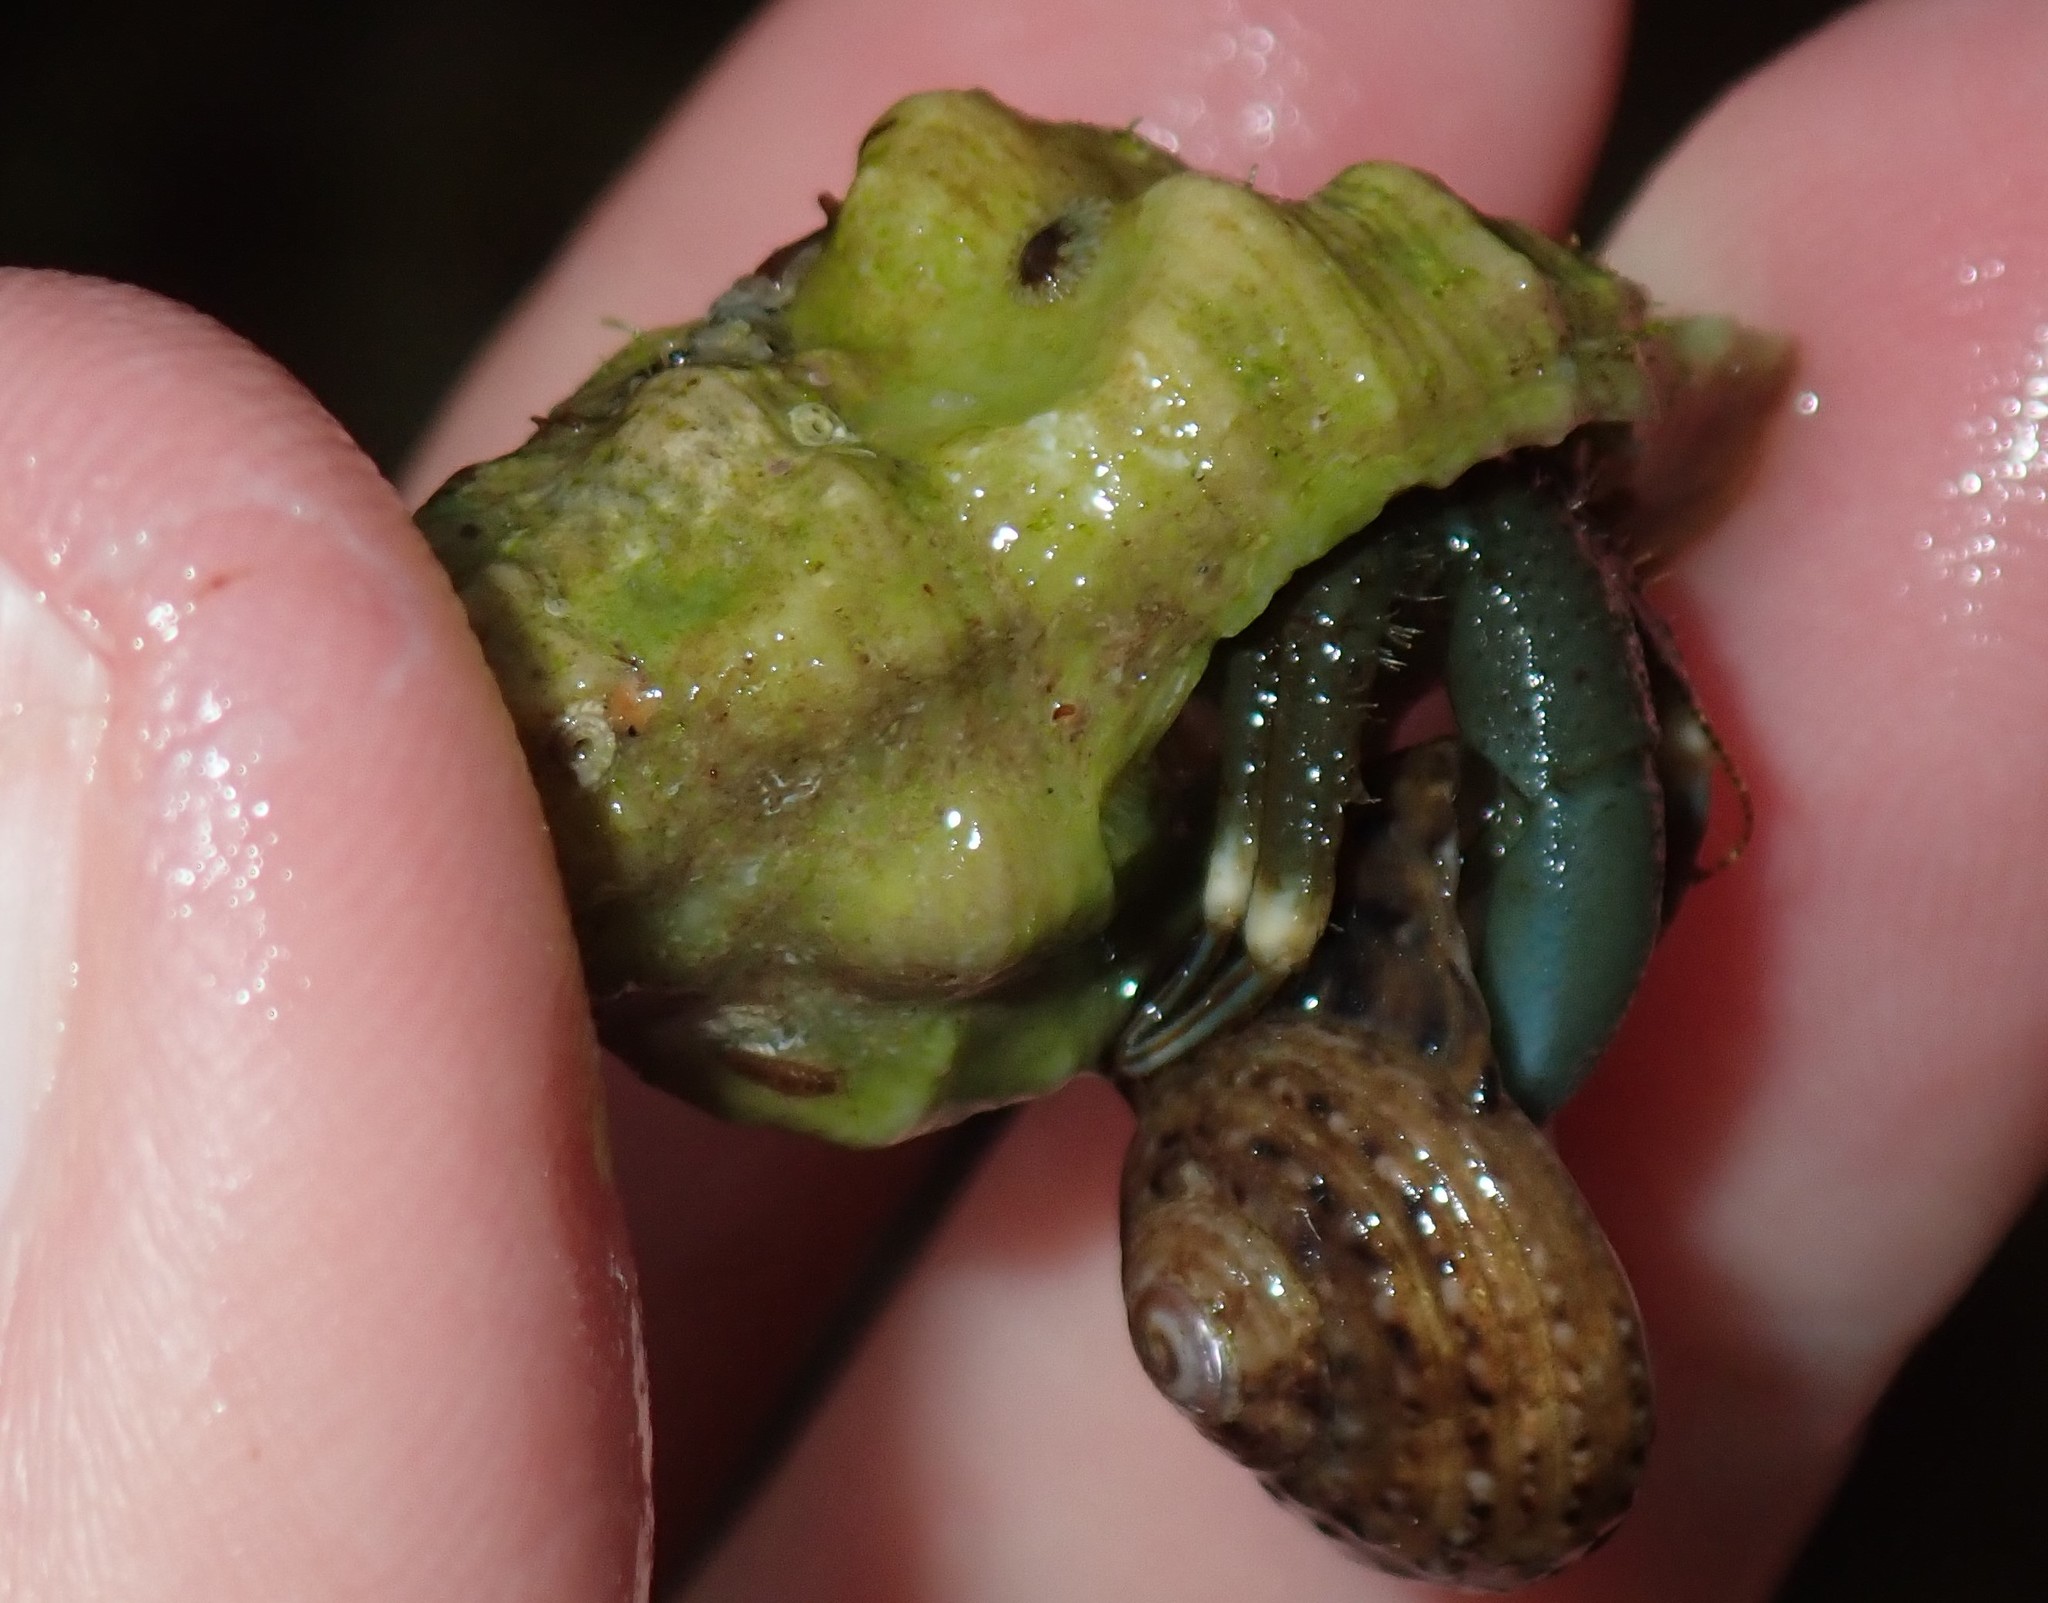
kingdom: Animalia
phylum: Mollusca
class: Gastropoda
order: Trochida
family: Tegulidae
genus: Tegula
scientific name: Tegula eiseni
